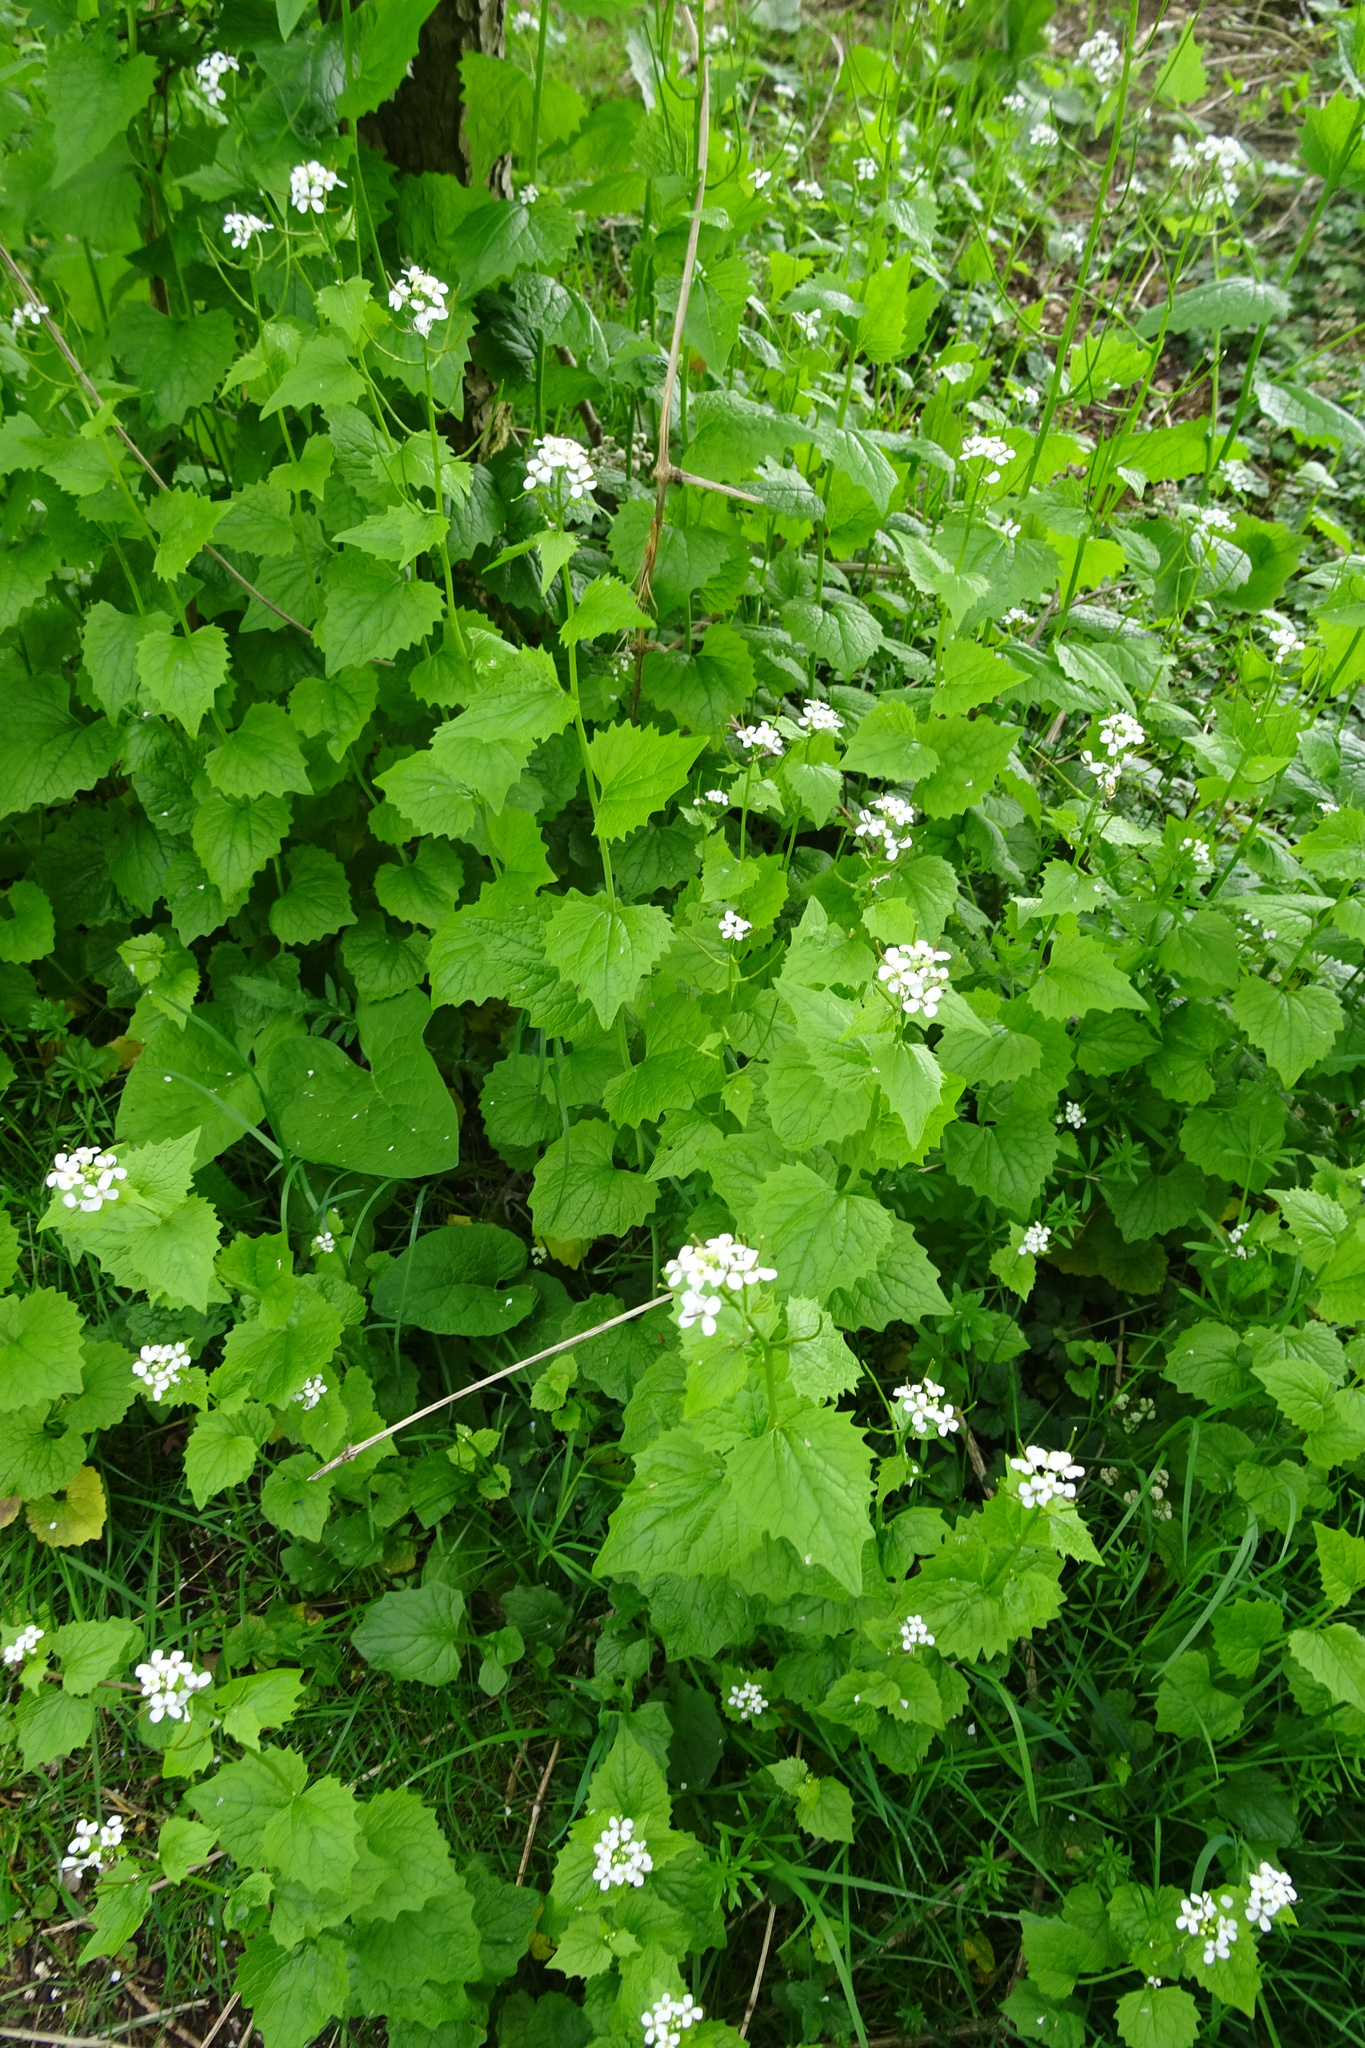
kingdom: Plantae
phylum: Tracheophyta
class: Magnoliopsida
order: Brassicales
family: Brassicaceae
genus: Alliaria
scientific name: Alliaria petiolata
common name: Garlic mustard
